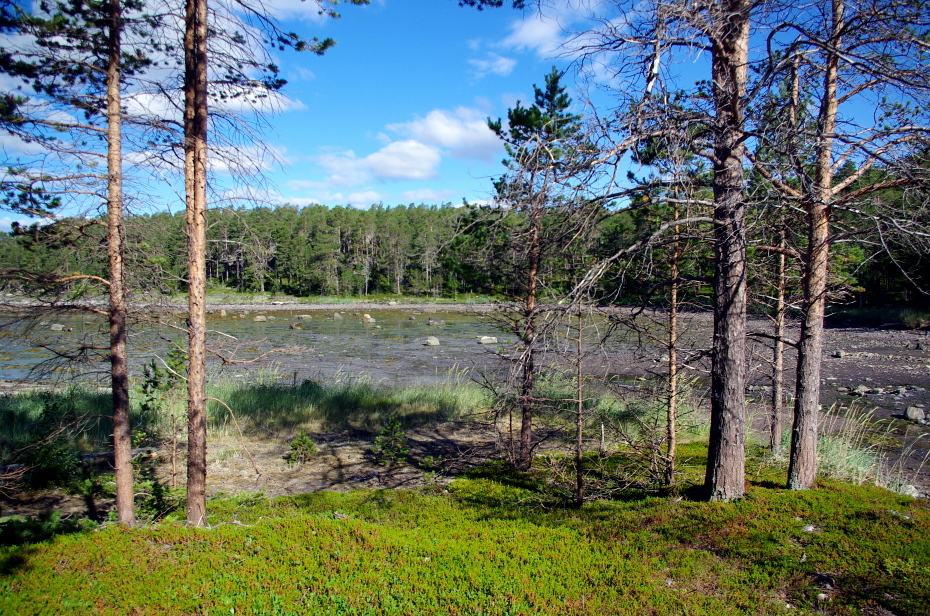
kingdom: Plantae
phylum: Tracheophyta
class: Pinopsida
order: Pinales
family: Pinaceae
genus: Pinus
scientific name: Pinus sylvestris
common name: Scots pine
